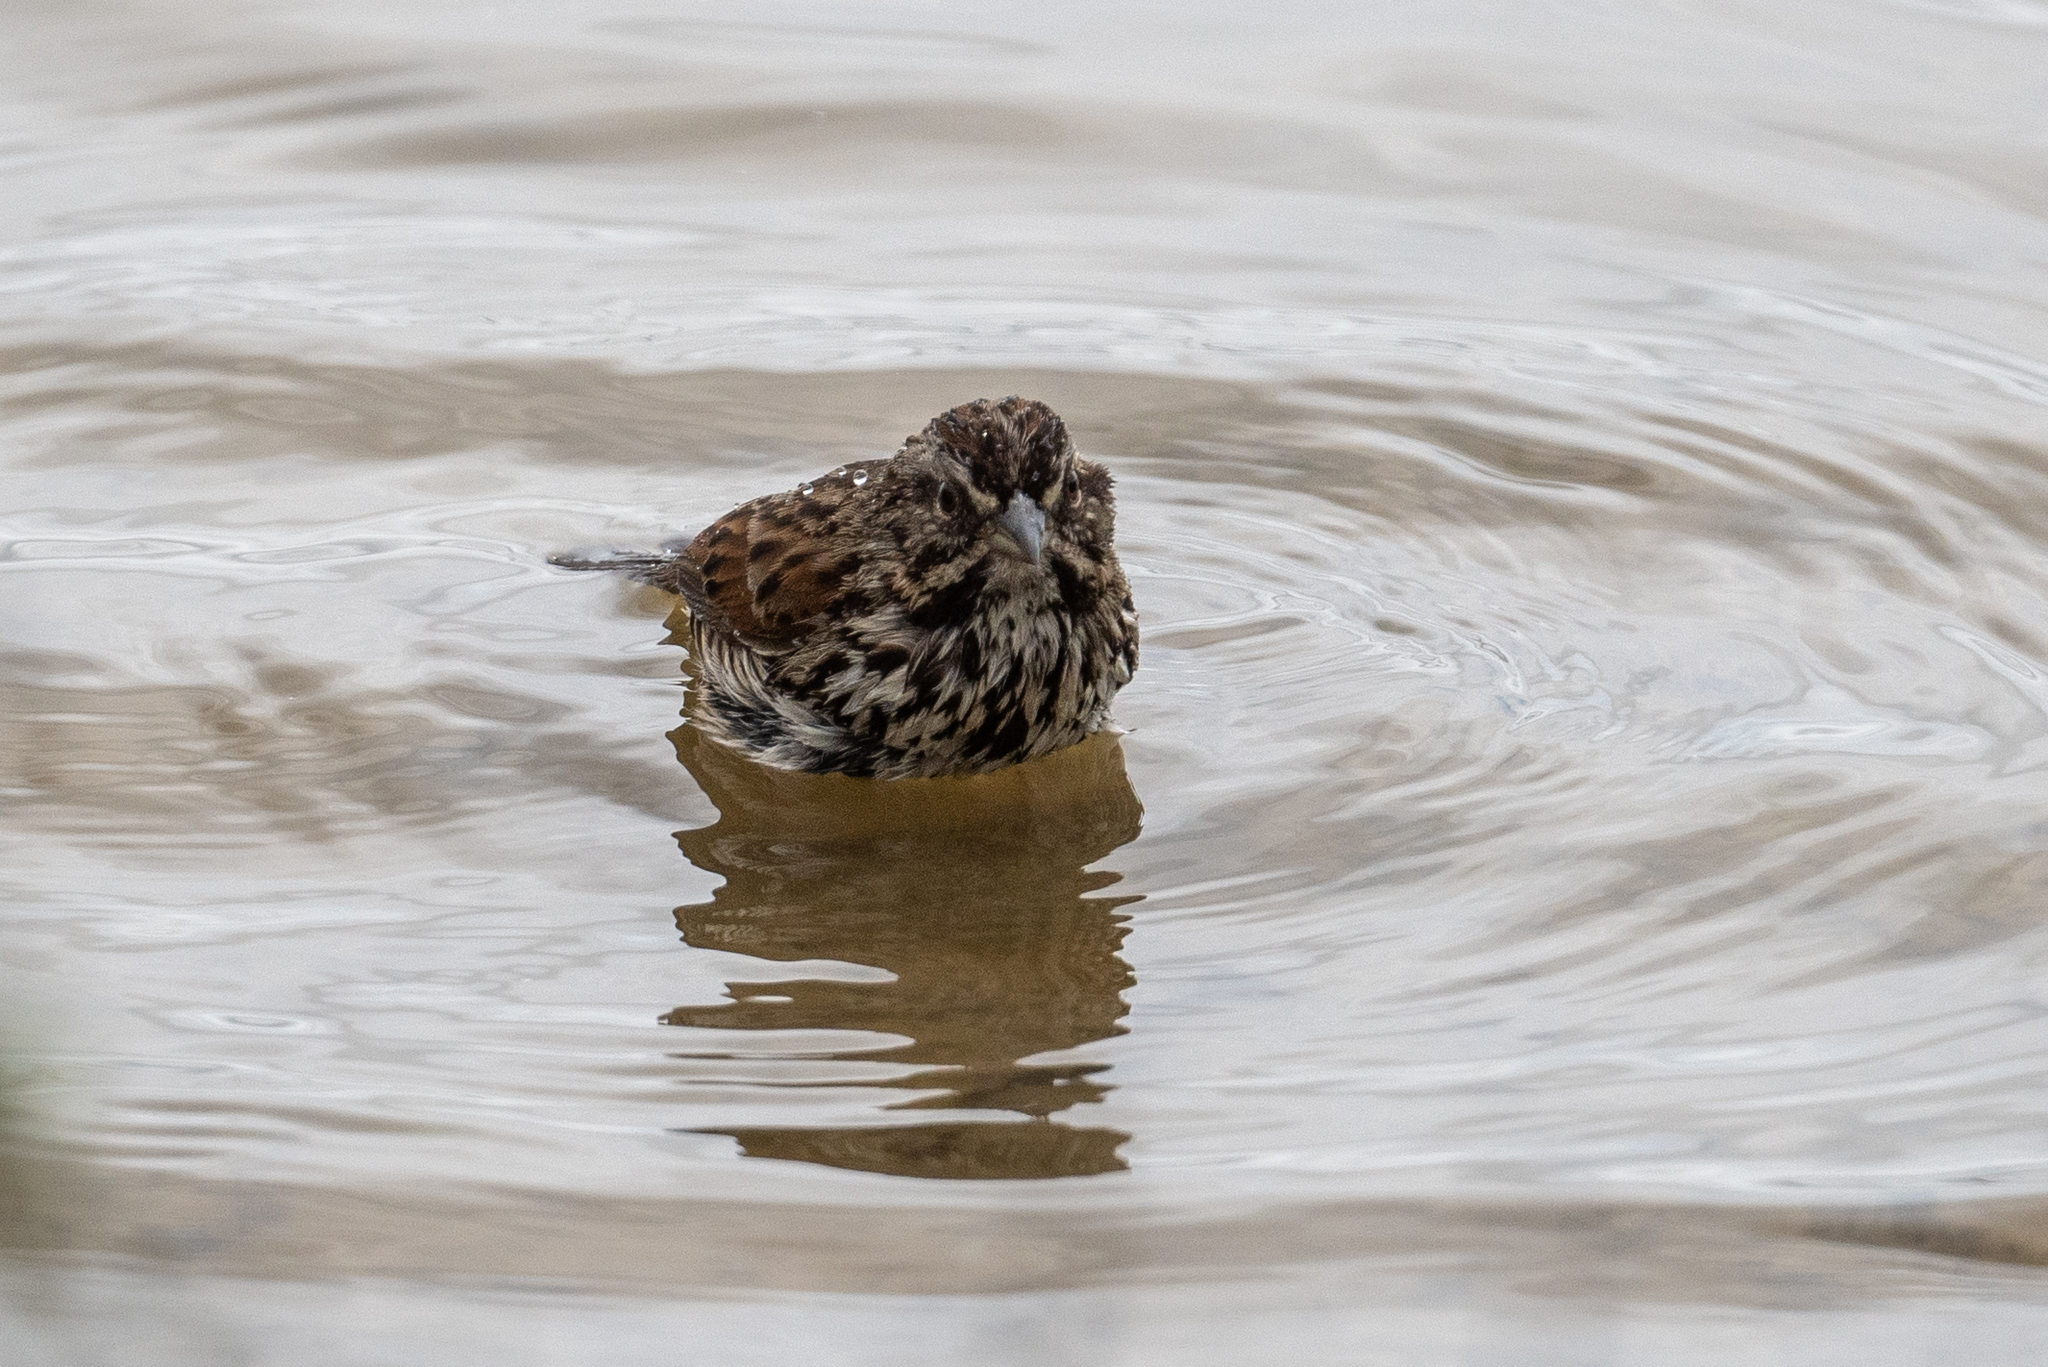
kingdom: Animalia
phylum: Chordata
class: Aves
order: Passeriformes
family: Passerellidae
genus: Melospiza
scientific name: Melospiza melodia
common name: Song sparrow
